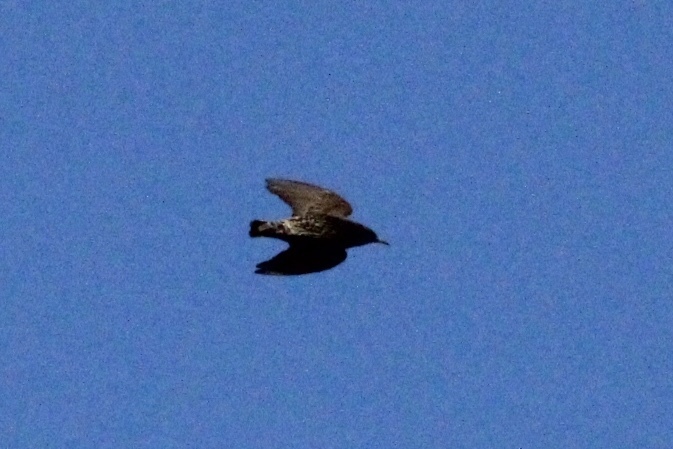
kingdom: Animalia
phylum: Chordata
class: Aves
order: Passeriformes
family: Sturnidae
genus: Sturnus
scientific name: Sturnus vulgaris
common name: Common starling
